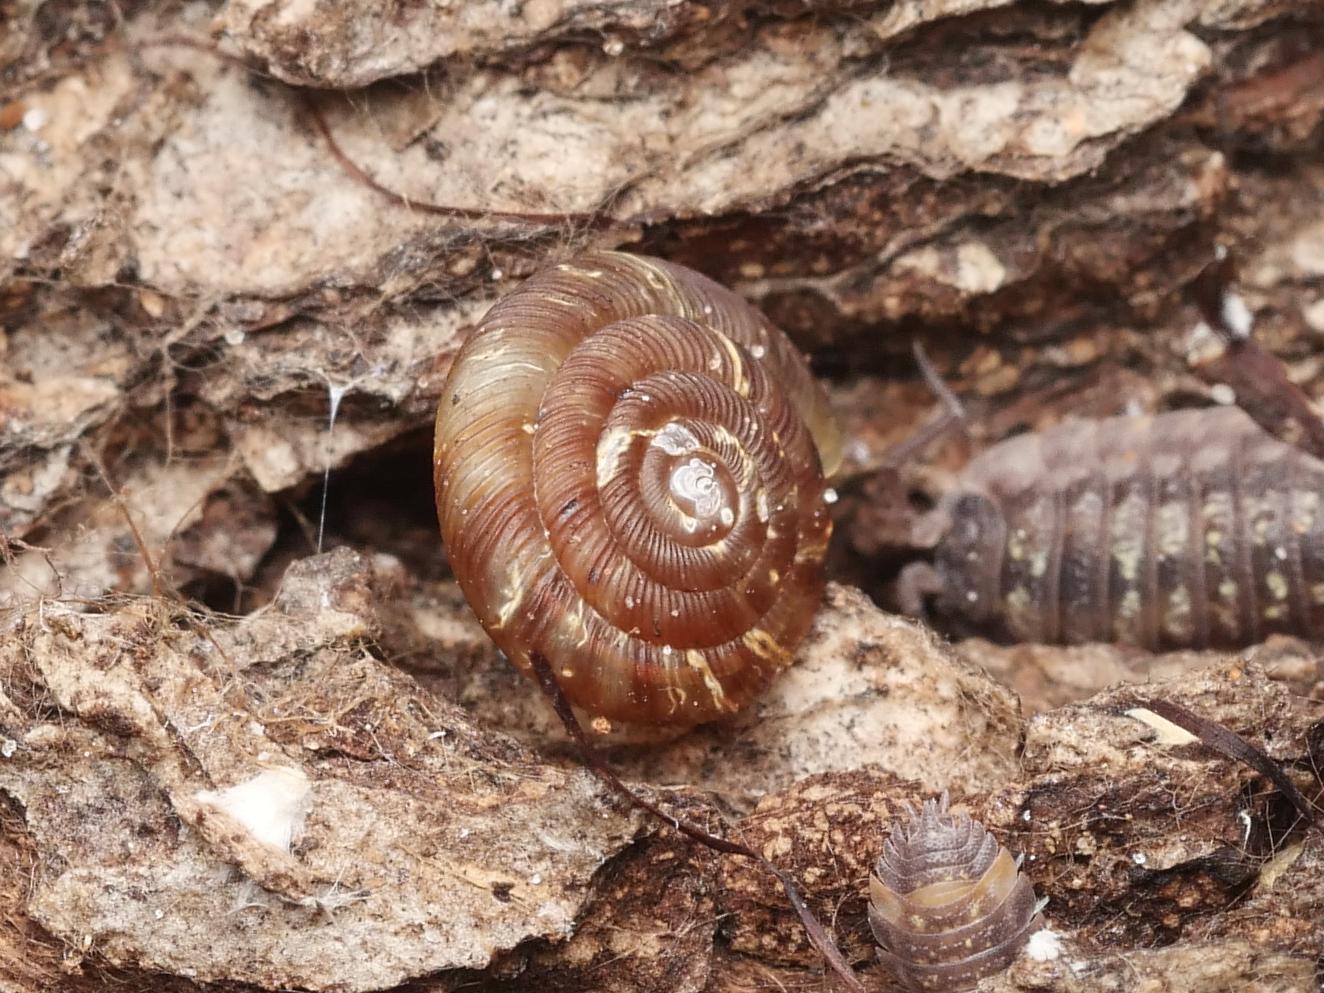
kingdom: Animalia
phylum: Mollusca
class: Gastropoda
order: Stylommatophora
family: Discidae
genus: Discus
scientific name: Discus rotundatus
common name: Rounded snail
